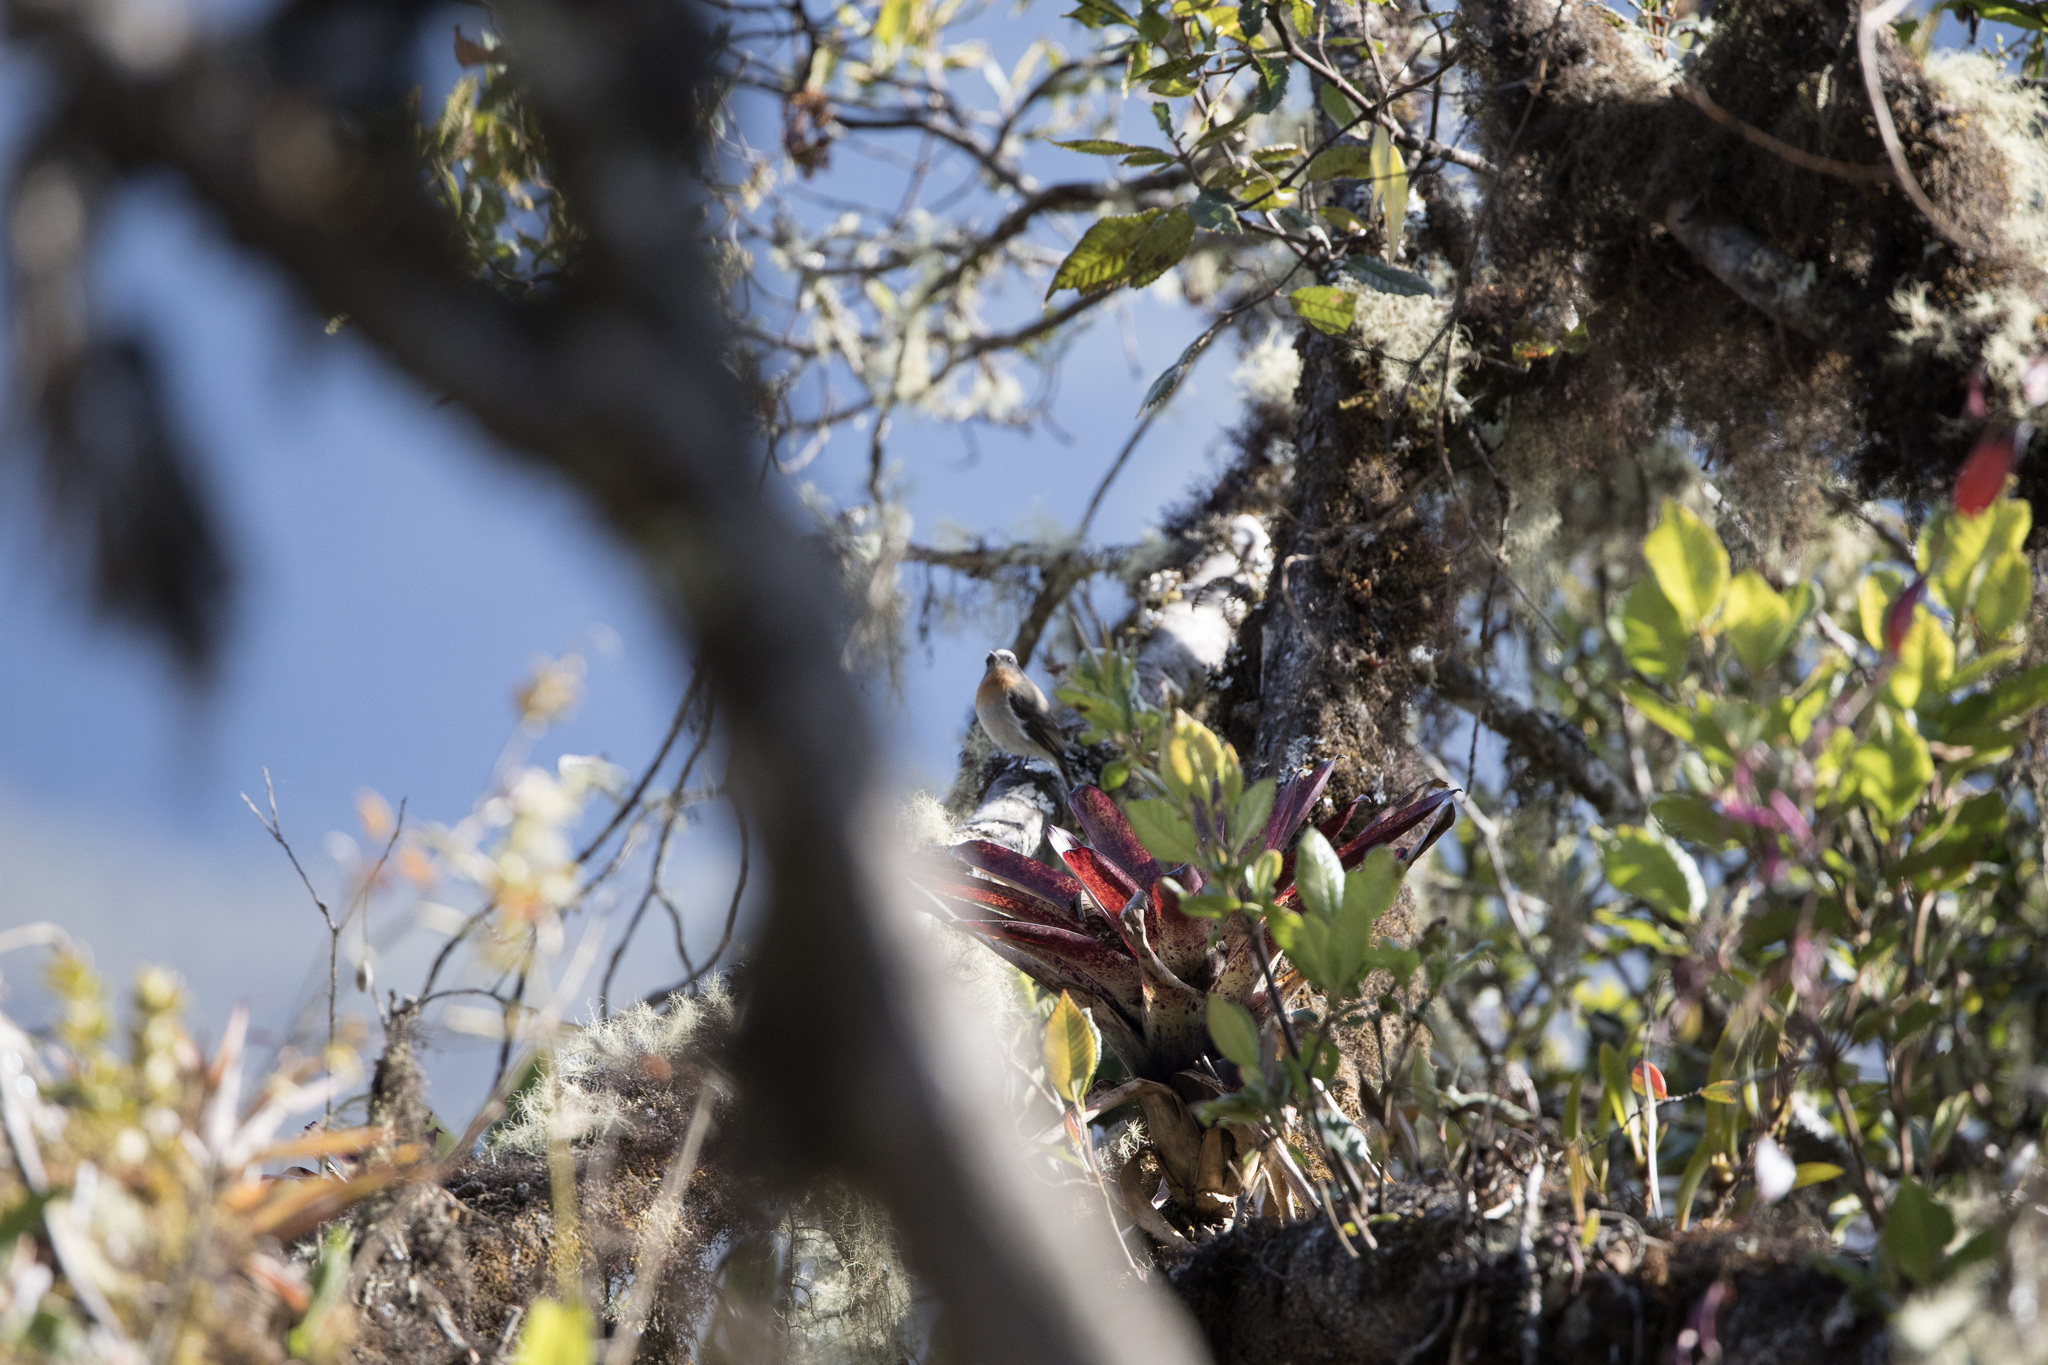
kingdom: Animalia
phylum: Chordata
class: Aves
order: Passeriformes
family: Tyrannidae
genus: Ochthoeca
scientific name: Ochthoeca rufipectoralis
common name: Rufous-breasted chat-tyrant
